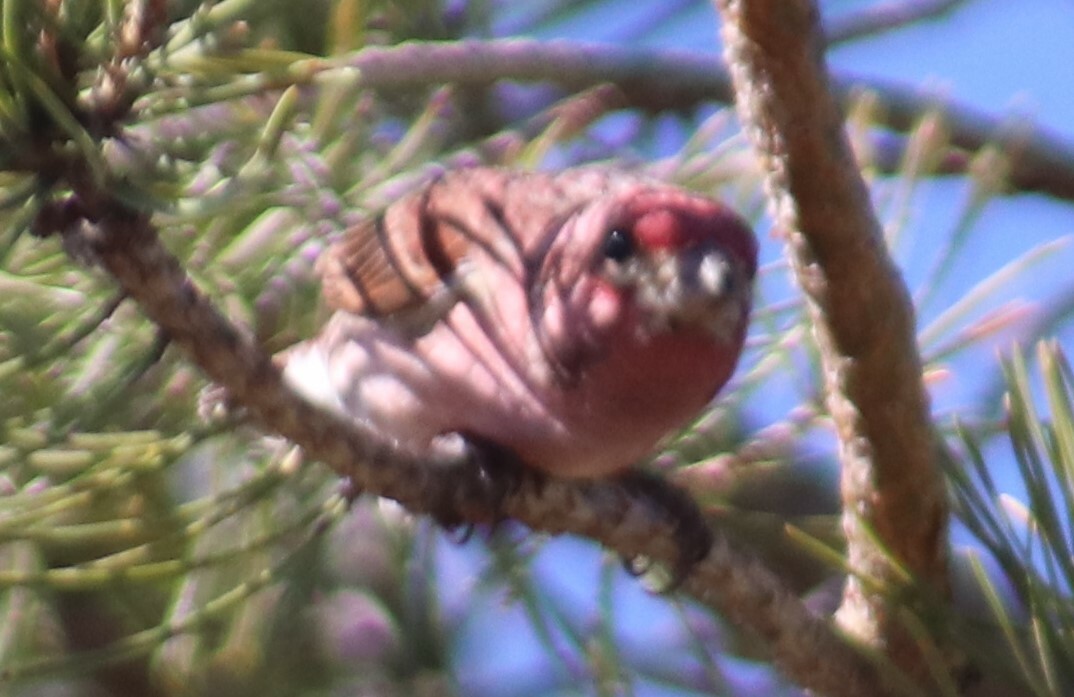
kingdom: Animalia
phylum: Chordata
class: Aves
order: Passeriformes
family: Fringillidae
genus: Haemorhous
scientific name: Haemorhous purpureus
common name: Purple finch
